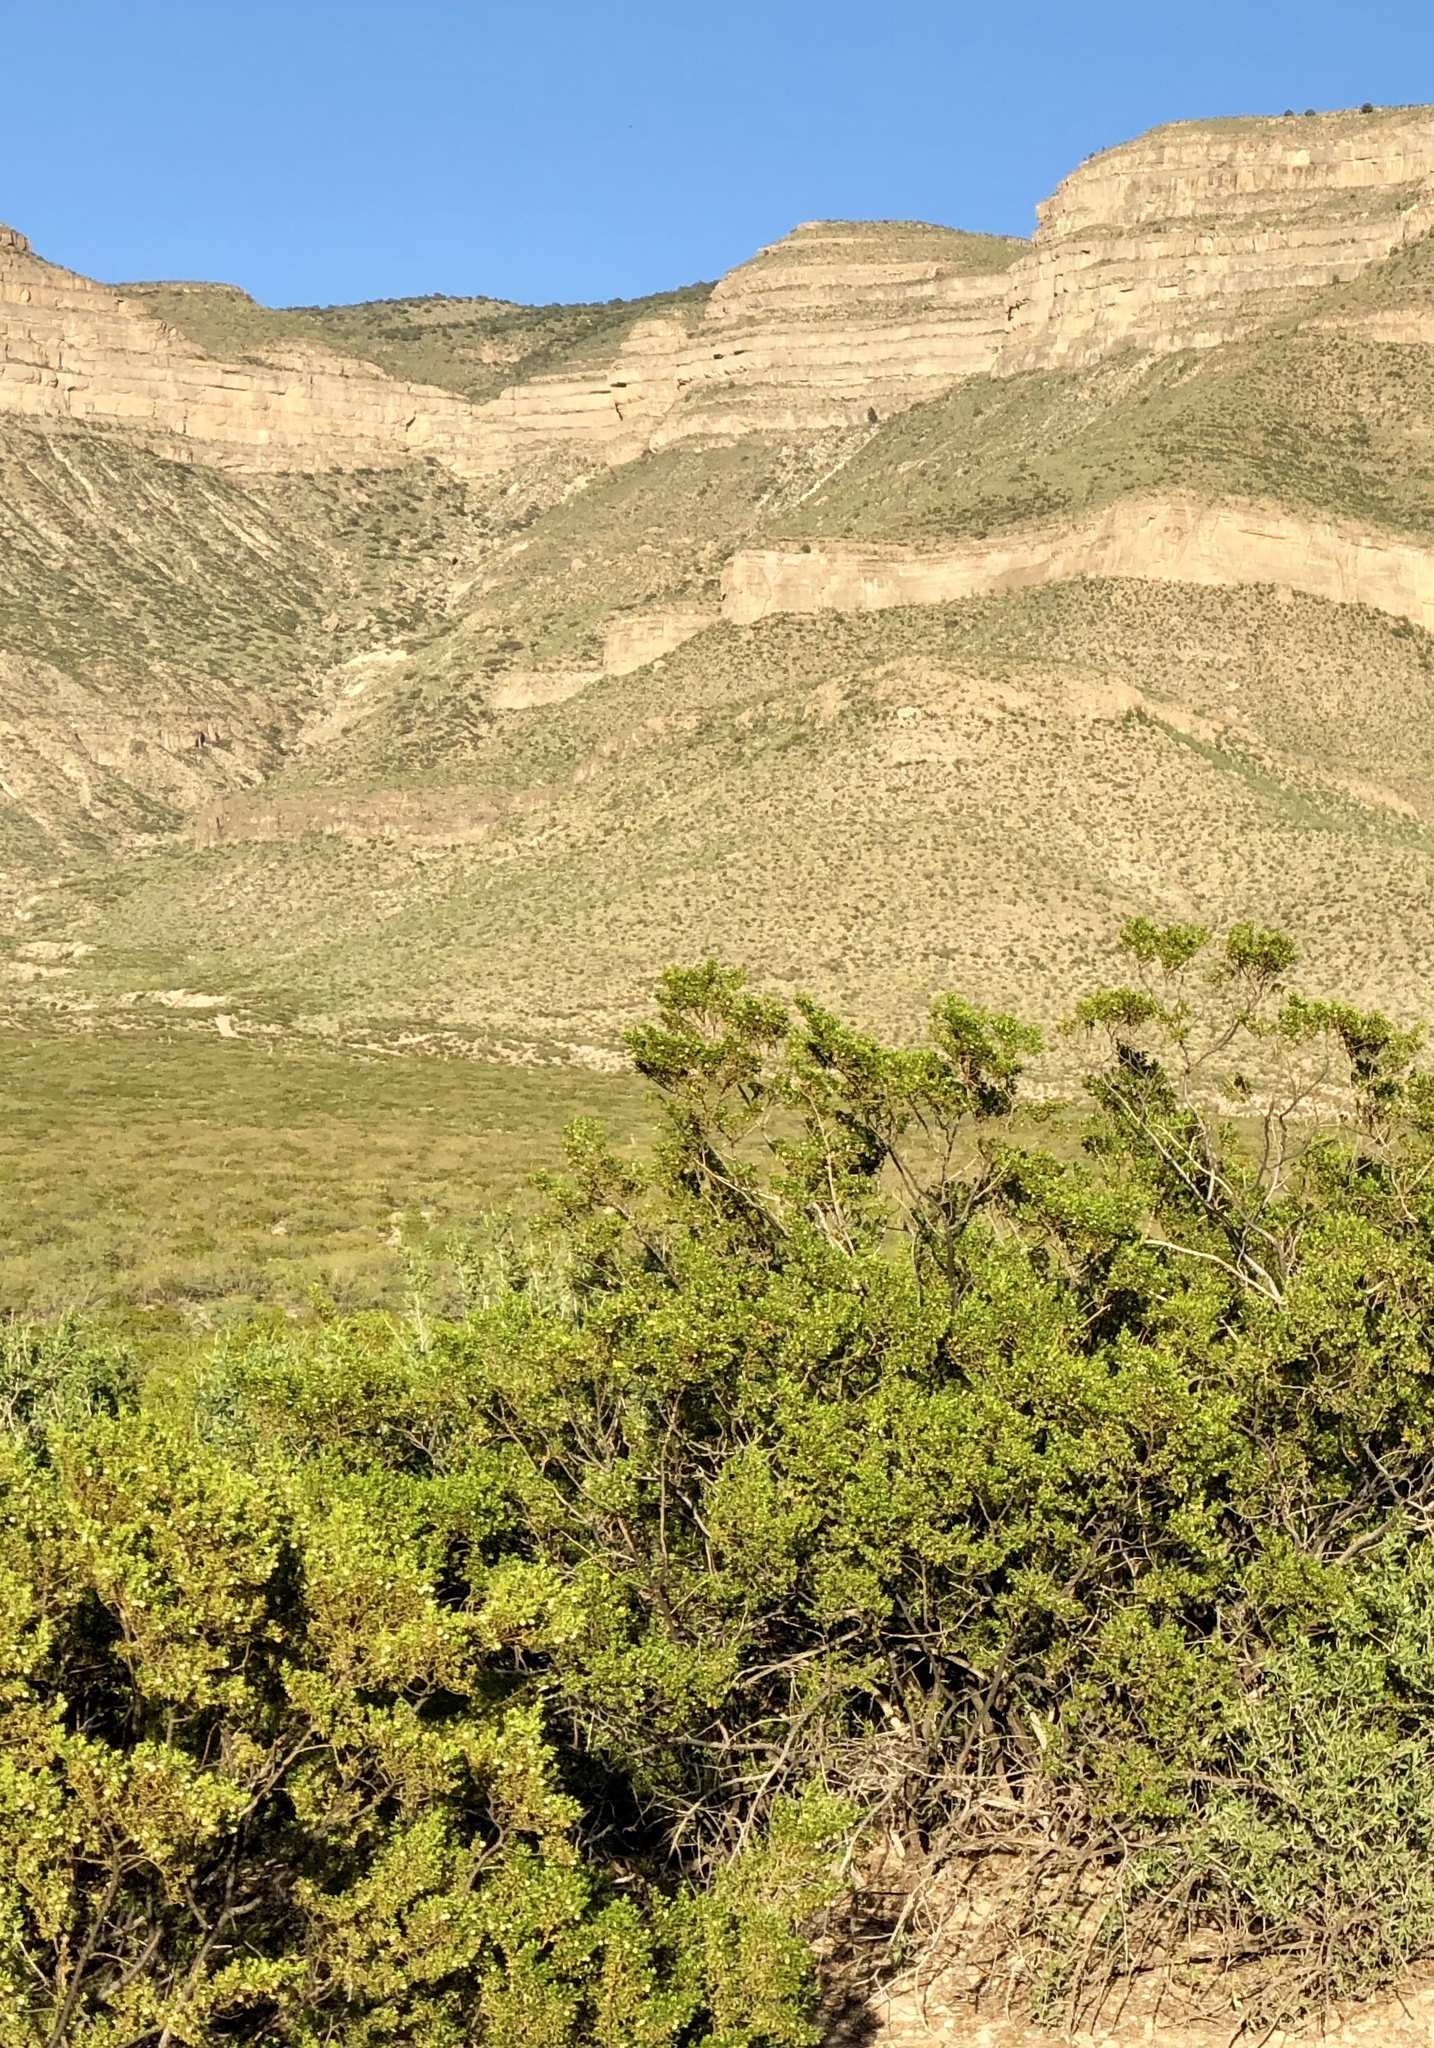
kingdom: Plantae
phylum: Tracheophyta
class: Magnoliopsida
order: Zygophyllales
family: Zygophyllaceae
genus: Larrea
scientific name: Larrea tridentata
